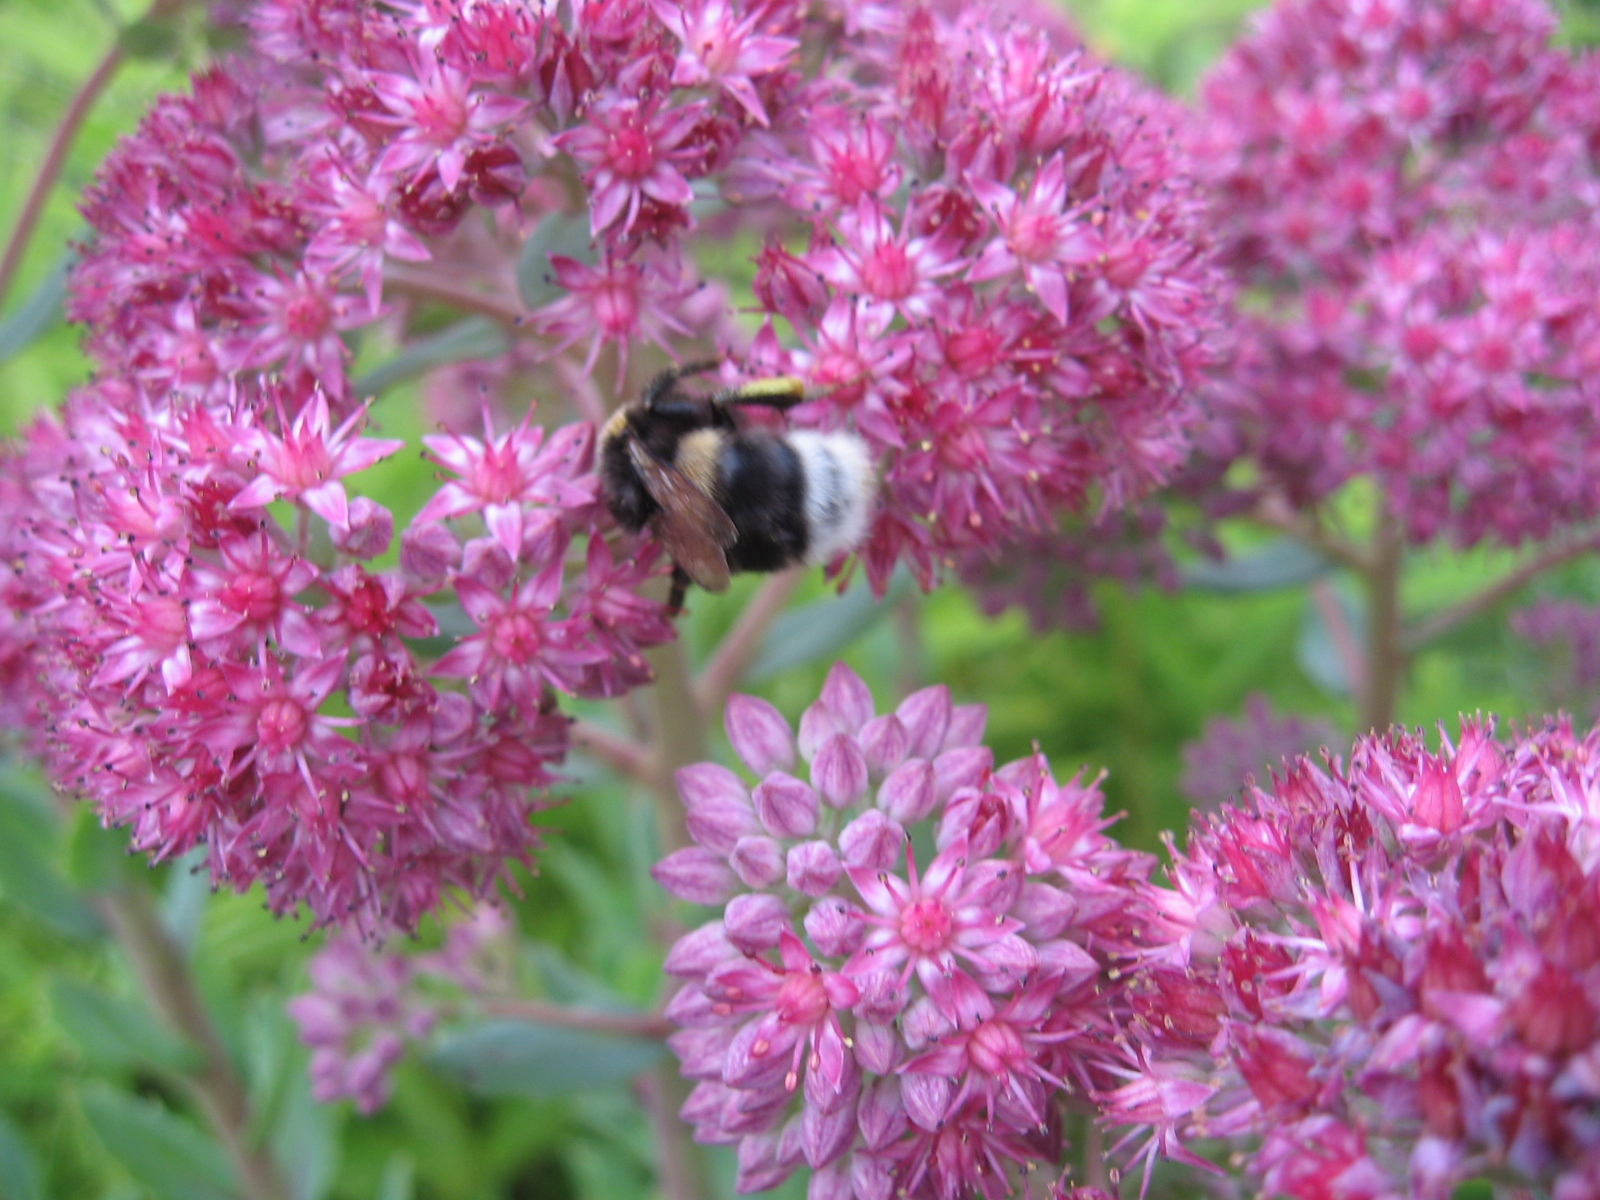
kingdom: Animalia
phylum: Arthropoda
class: Insecta
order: Hymenoptera
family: Apidae
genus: Bombus
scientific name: Bombus
